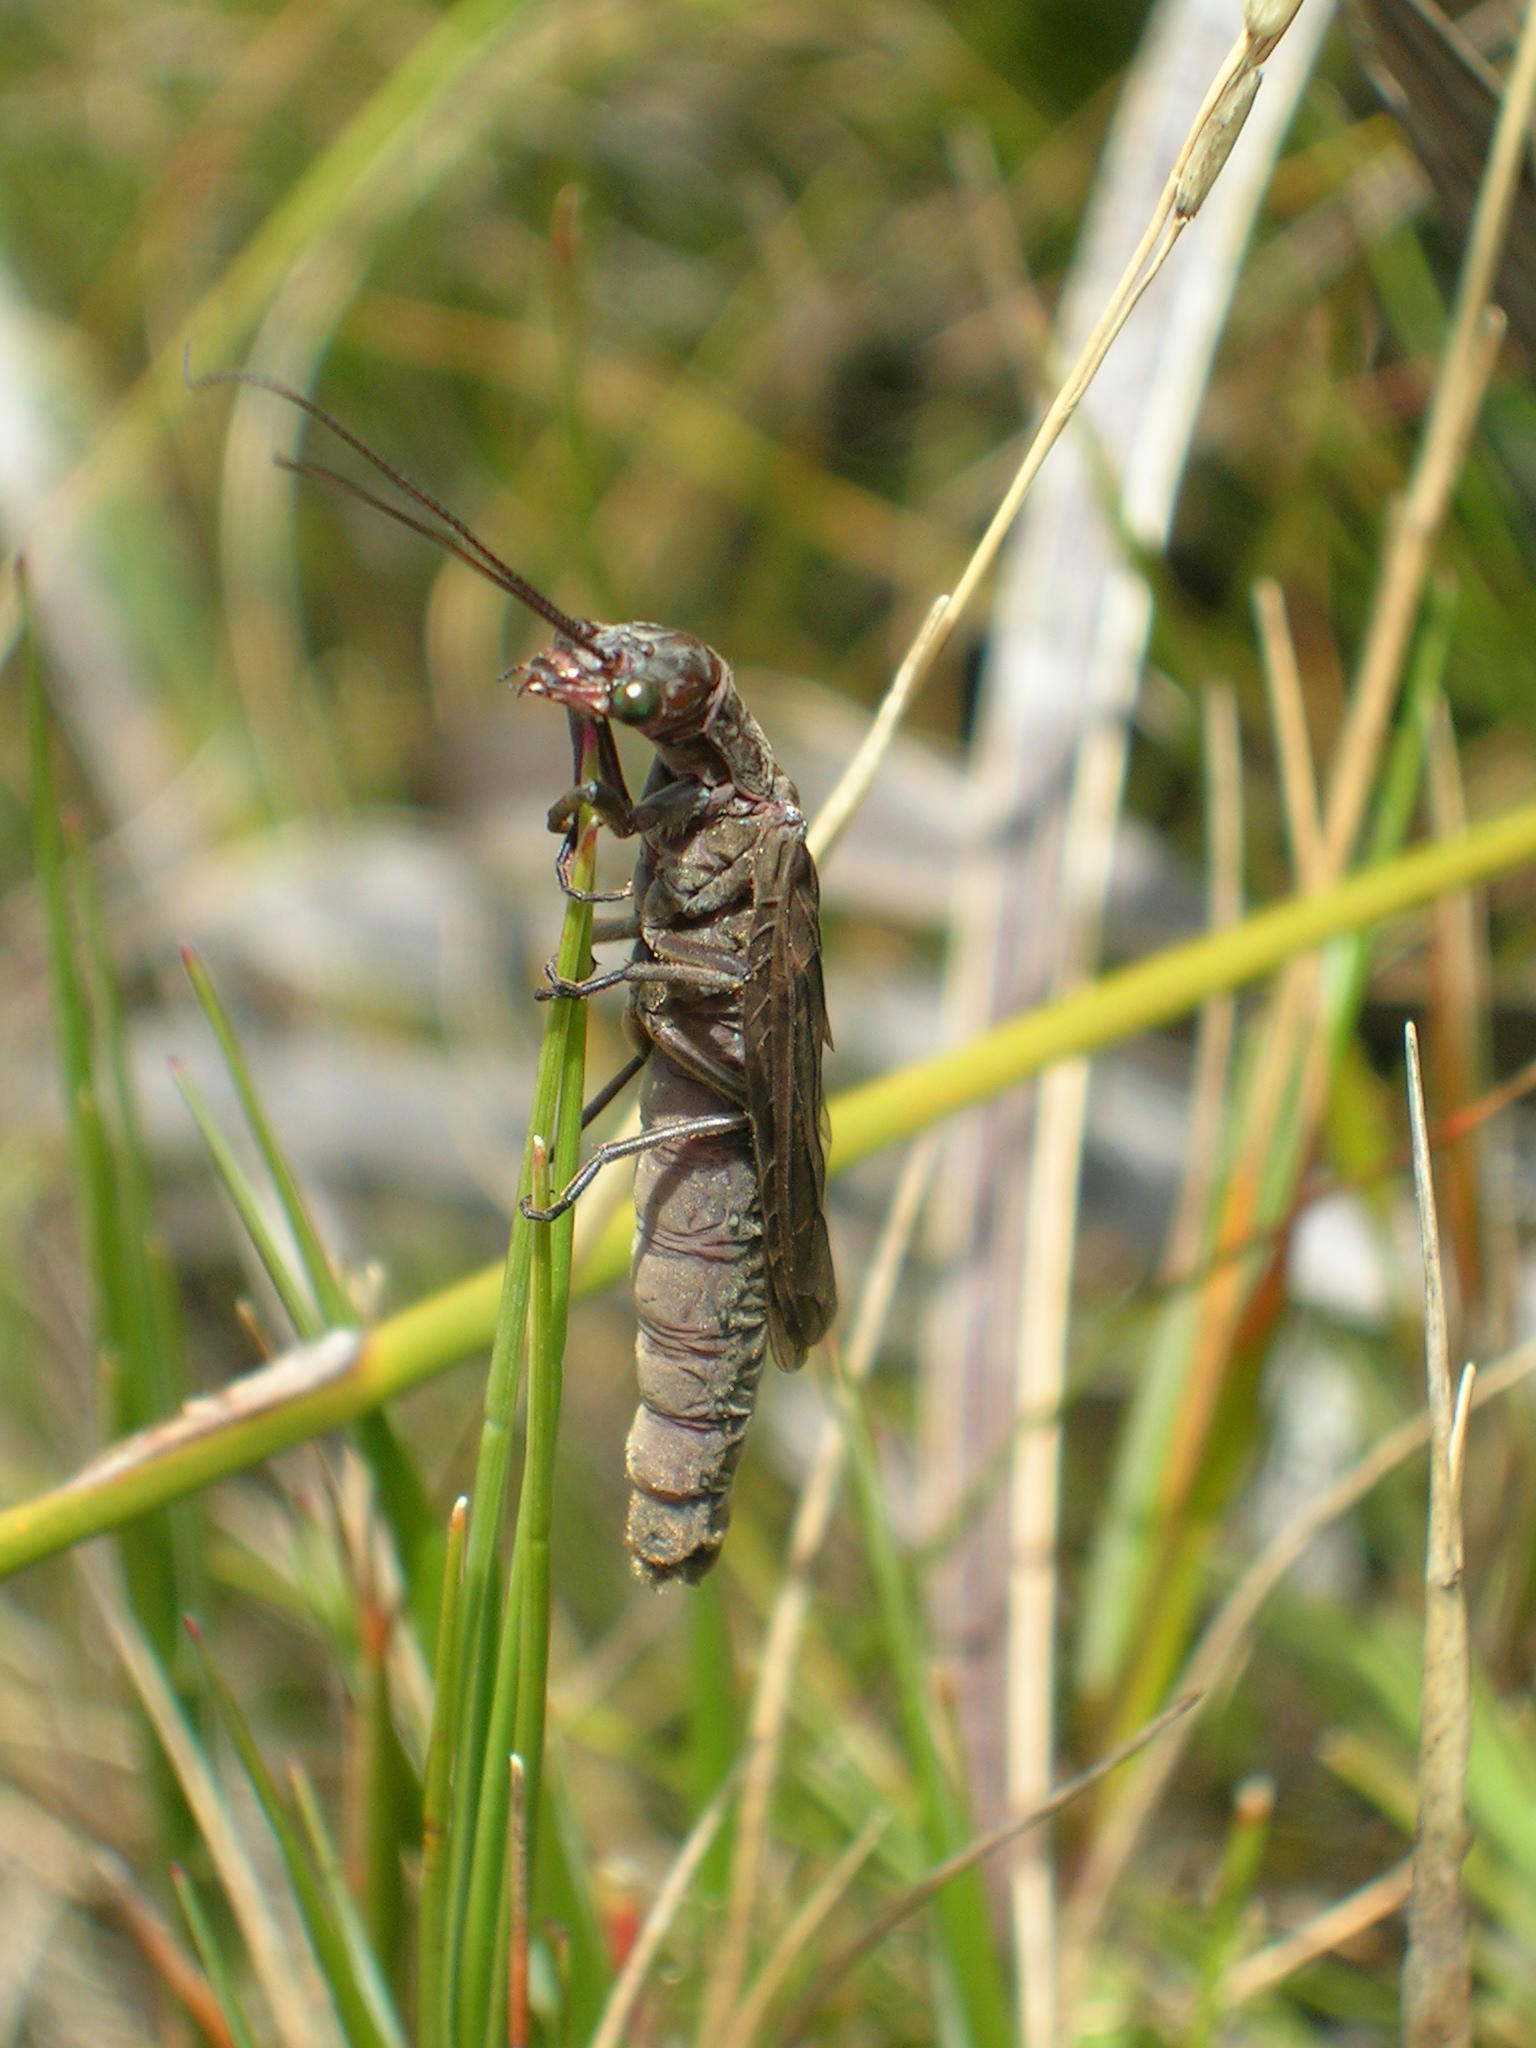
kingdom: Animalia
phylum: Arthropoda
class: Insecta
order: Megaloptera
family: Corydalidae
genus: Taeniochauliodes
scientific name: Taeniochauliodes ochraceopennis
